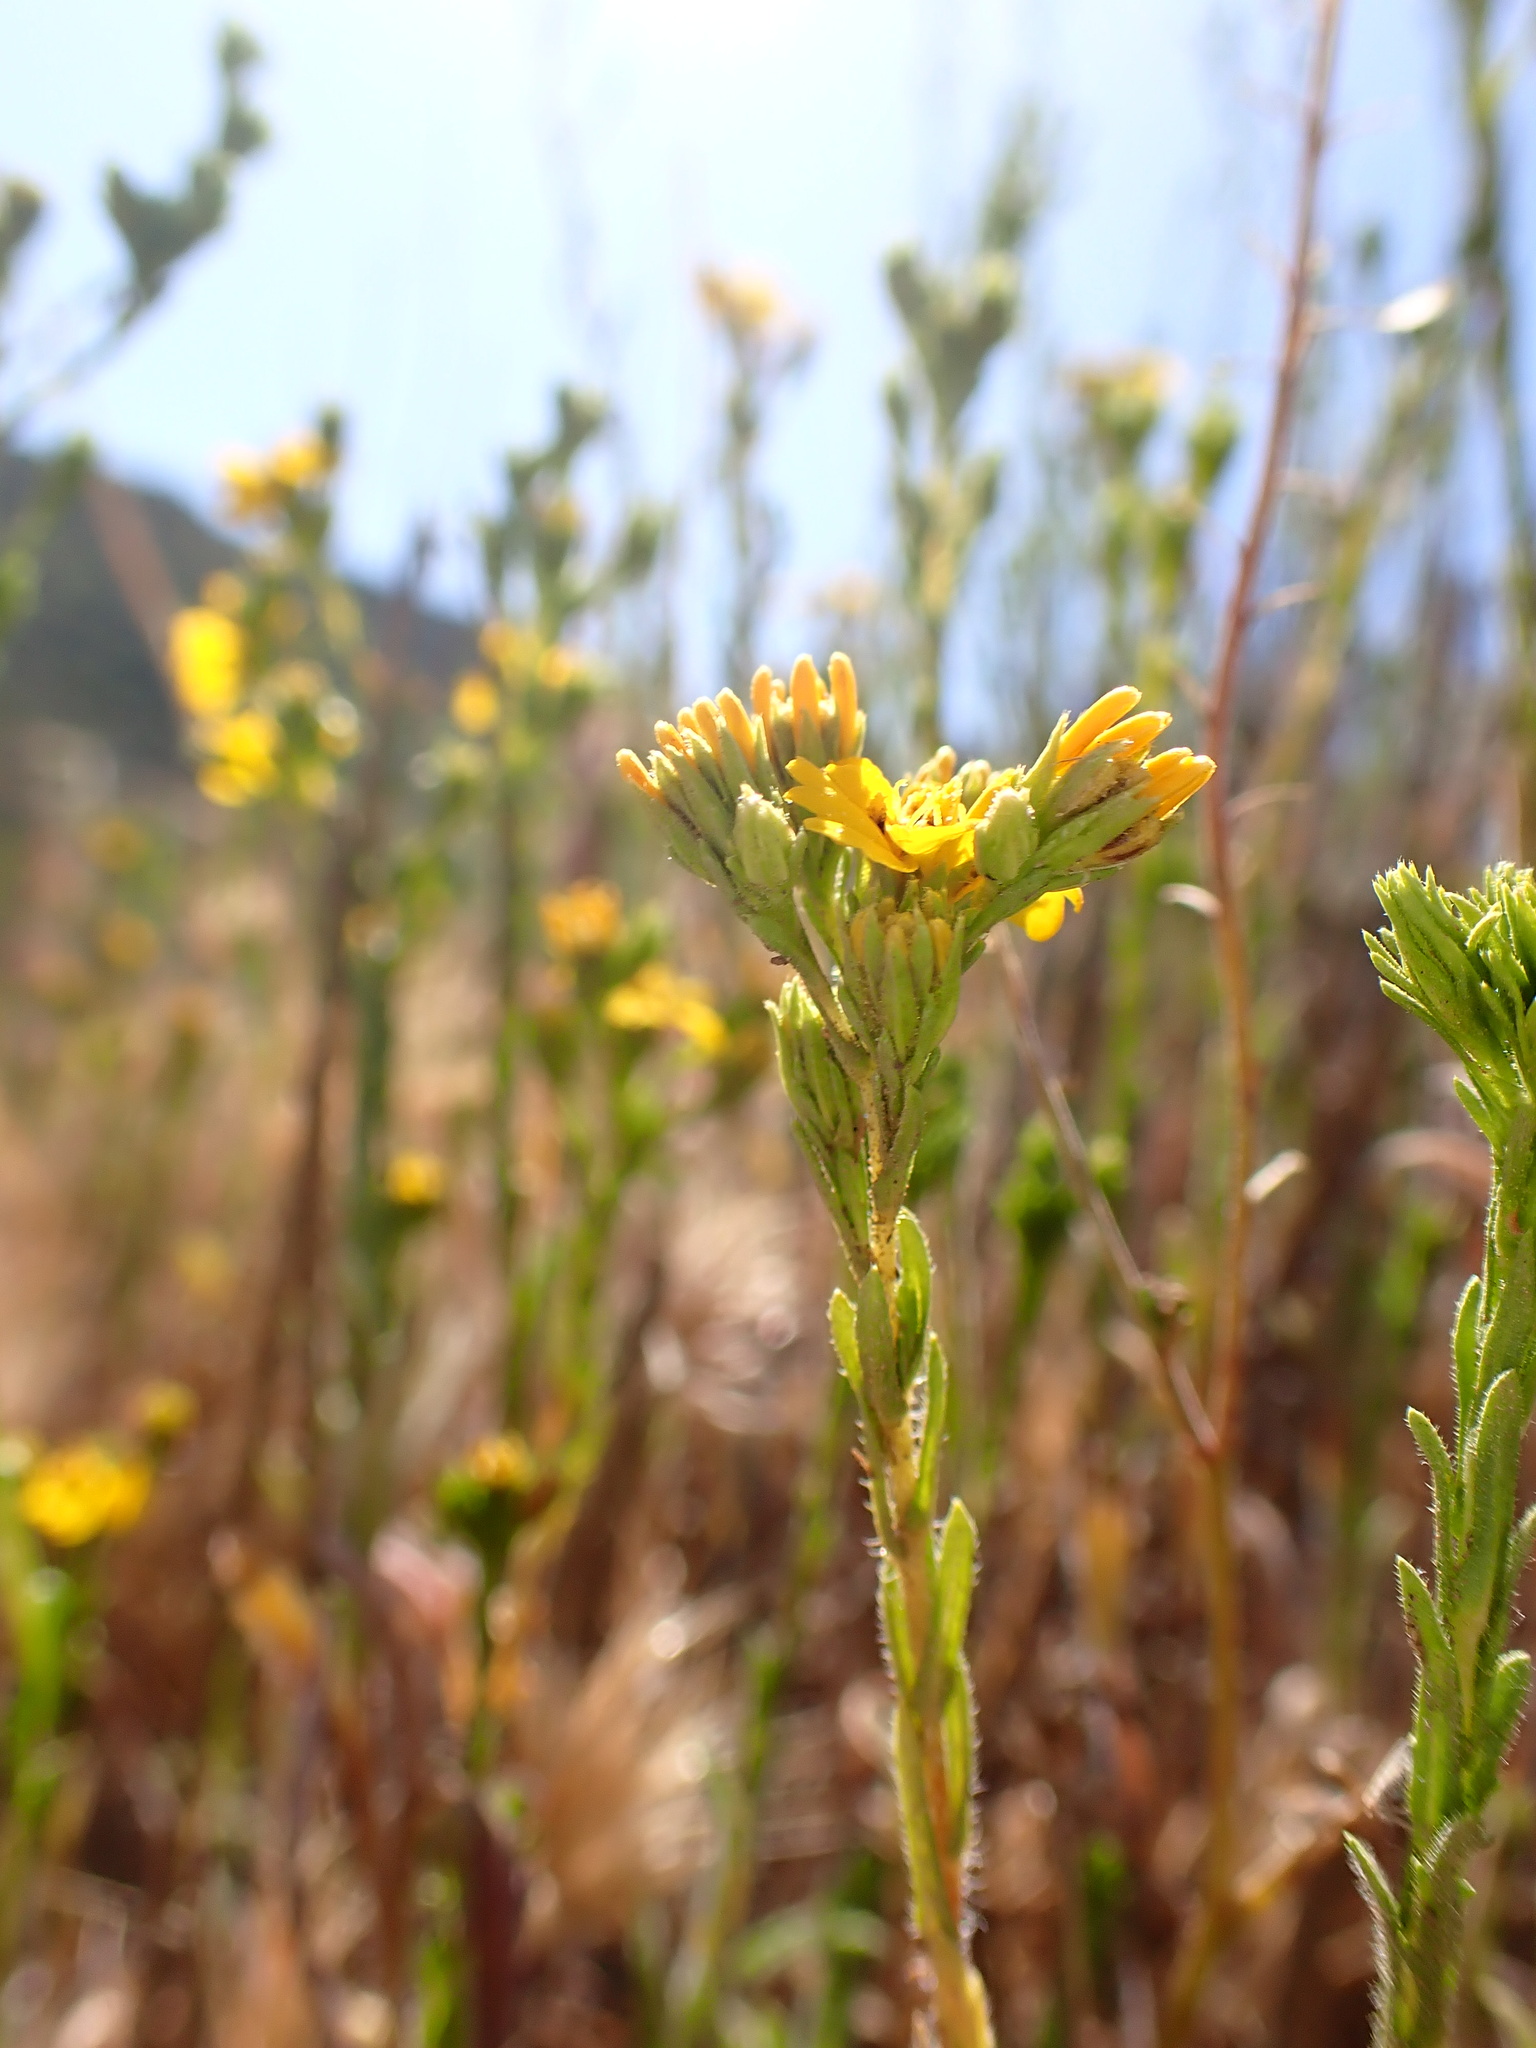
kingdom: Plantae
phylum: Tracheophyta
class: Magnoliopsida
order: Asterales
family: Asteraceae
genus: Deinandra
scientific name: Deinandra fasciculata
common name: Clustered tarweed
